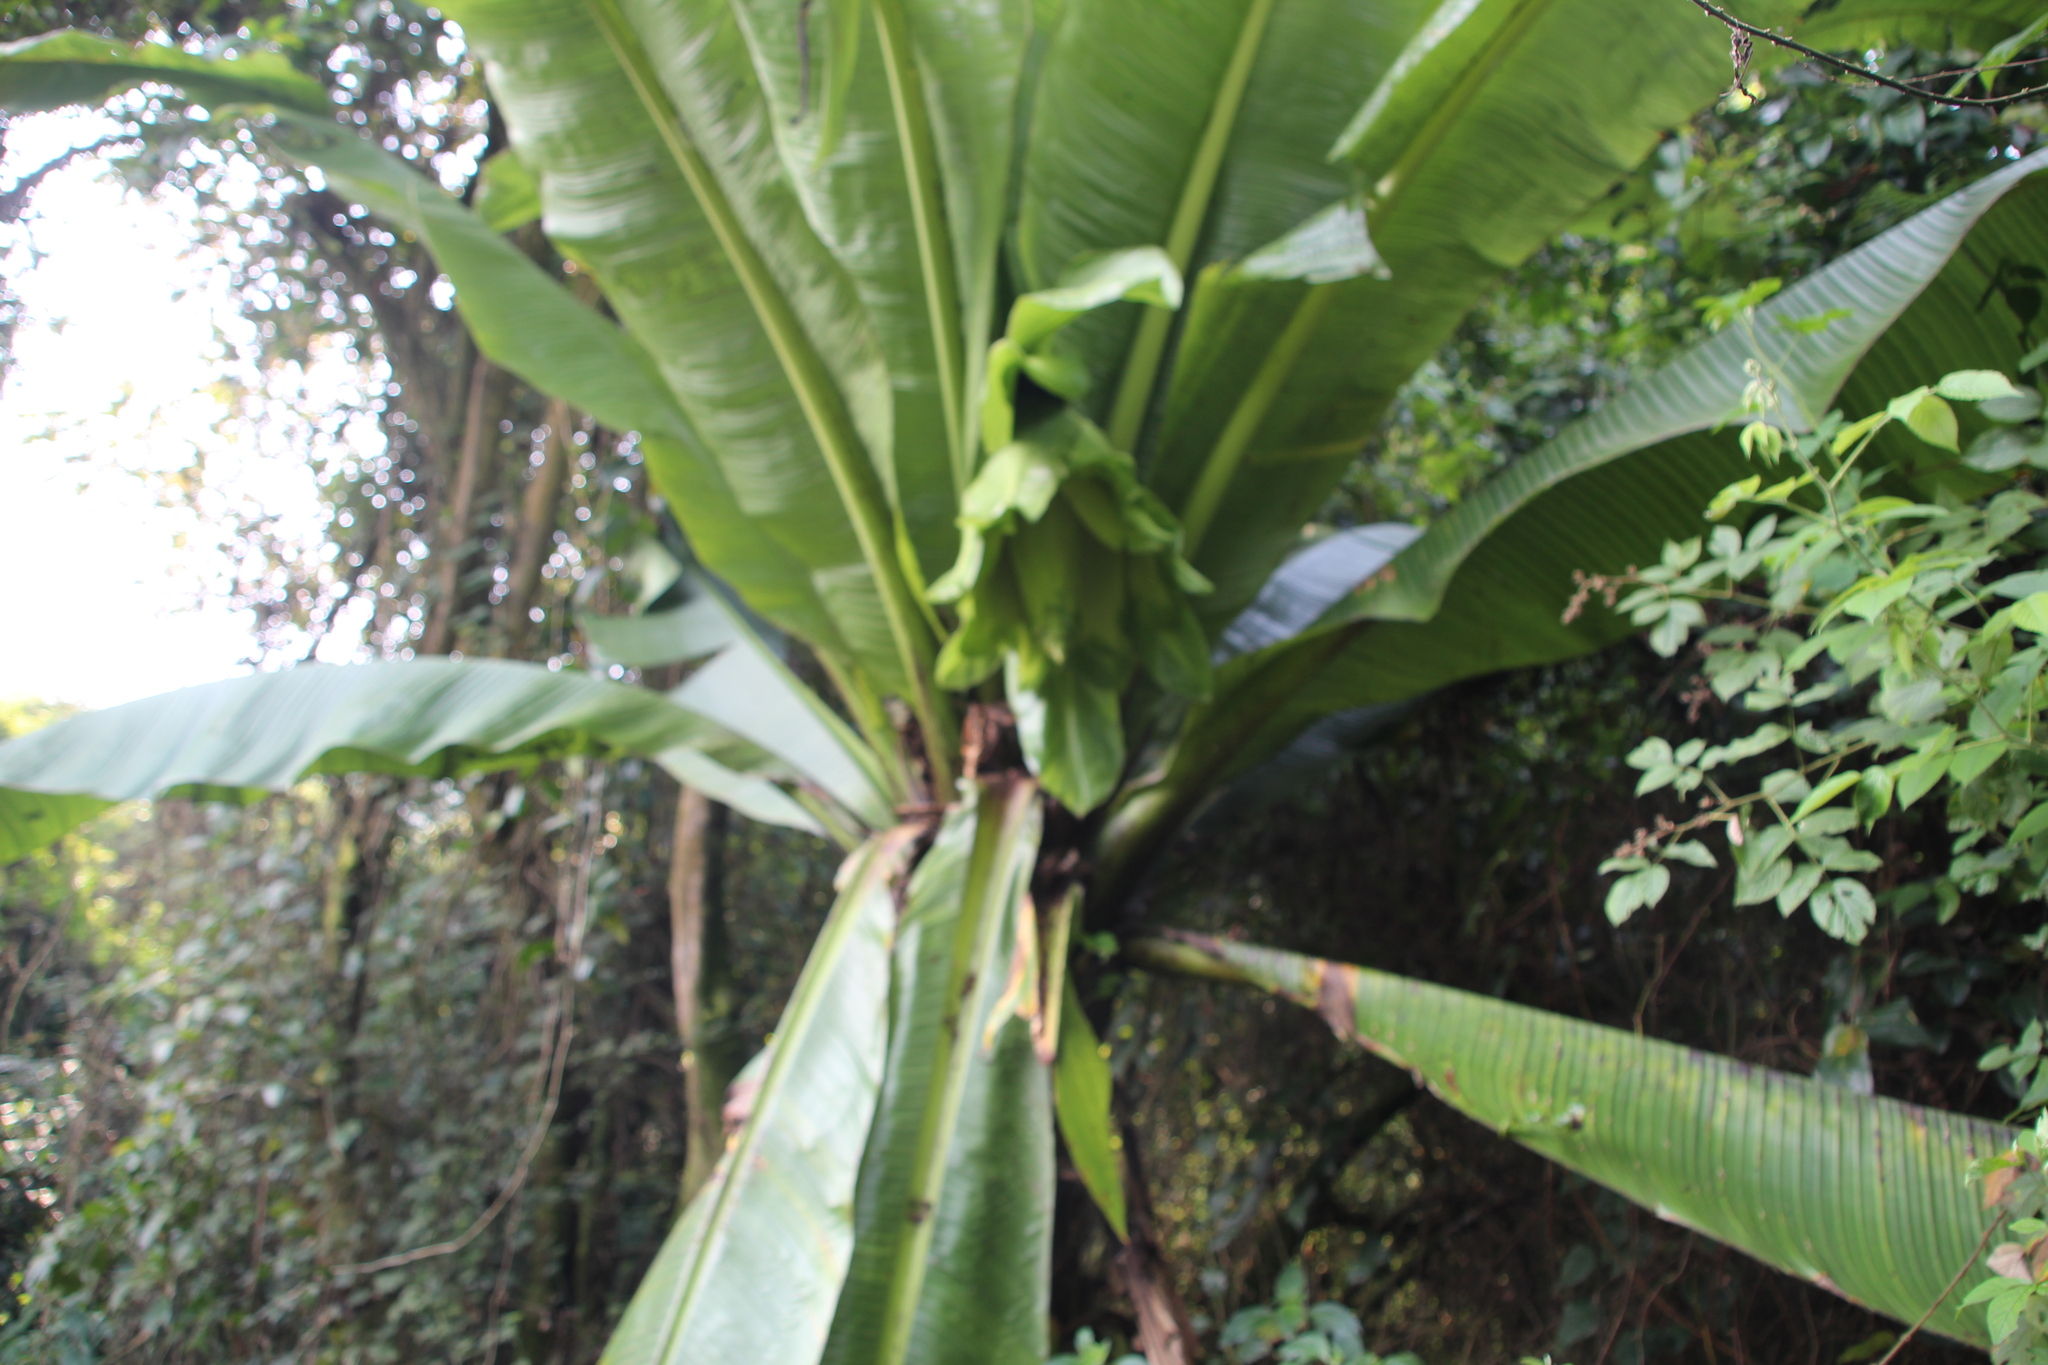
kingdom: Plantae
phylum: Tracheophyta
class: Liliopsida
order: Zingiberales
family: Musaceae
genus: Ensete
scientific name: Ensete ventricosum
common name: Abyssinian banana
